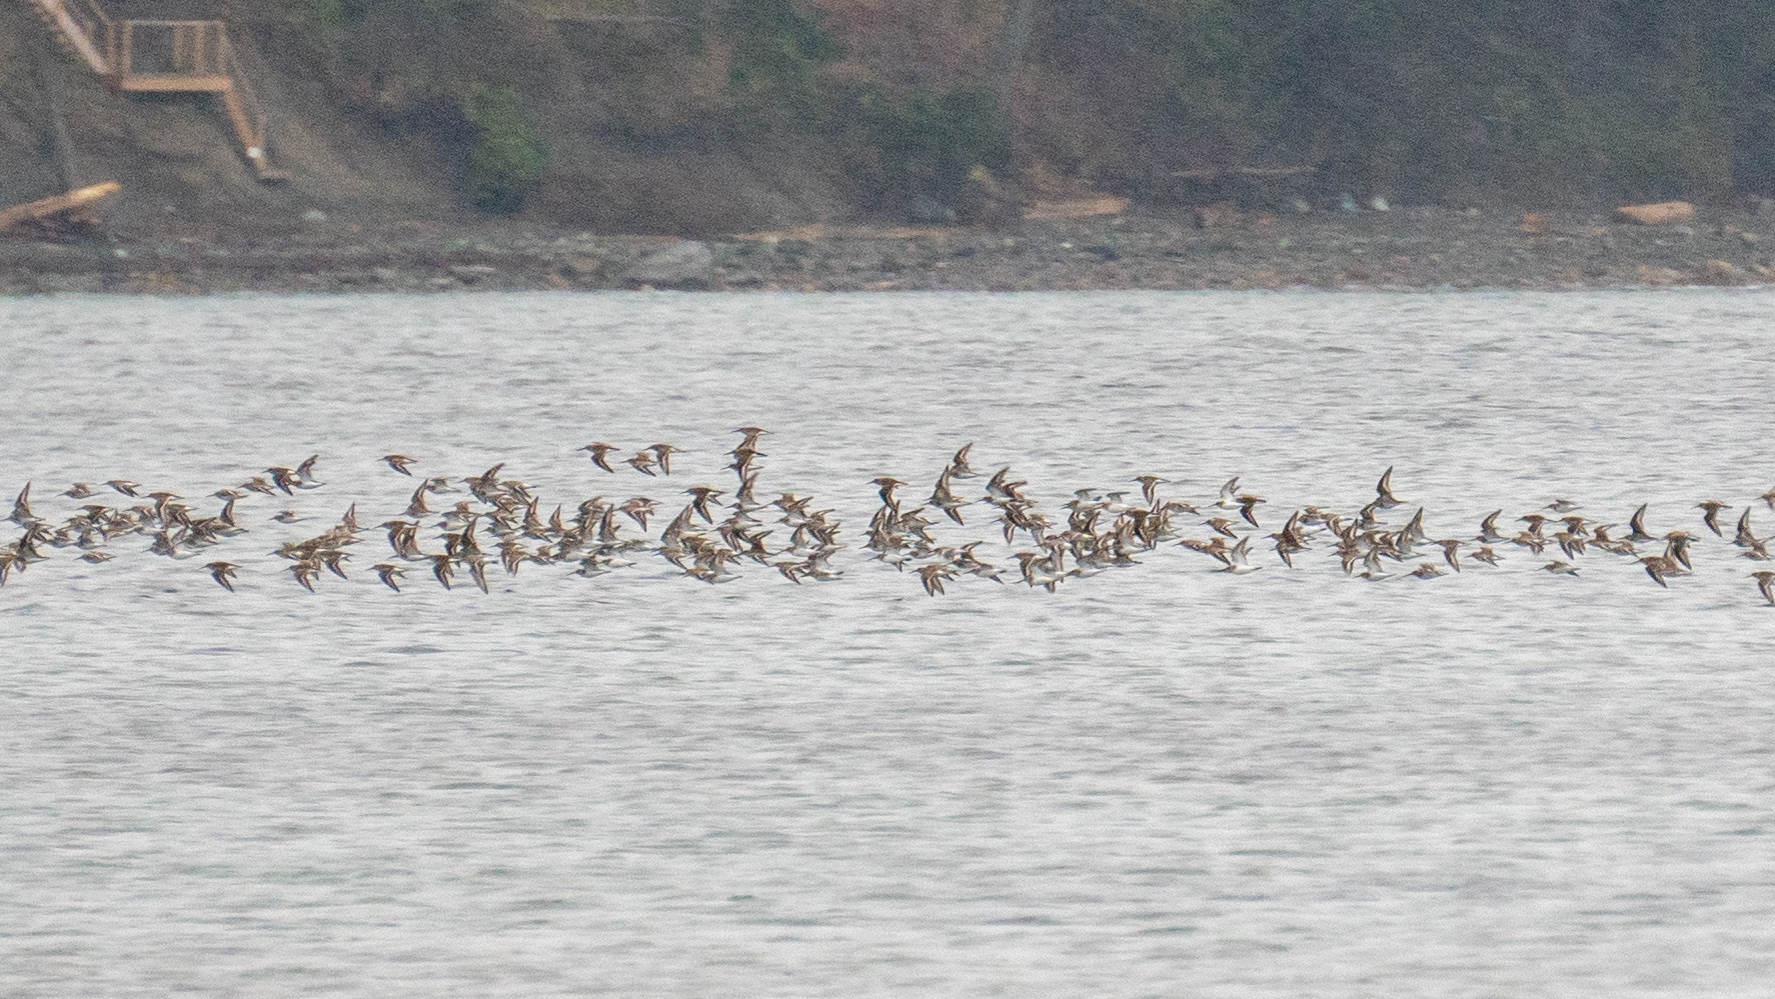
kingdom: Animalia
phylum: Chordata
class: Aves
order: Charadriiformes
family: Scolopacidae
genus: Calidris
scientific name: Calidris alpina
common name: Dunlin
